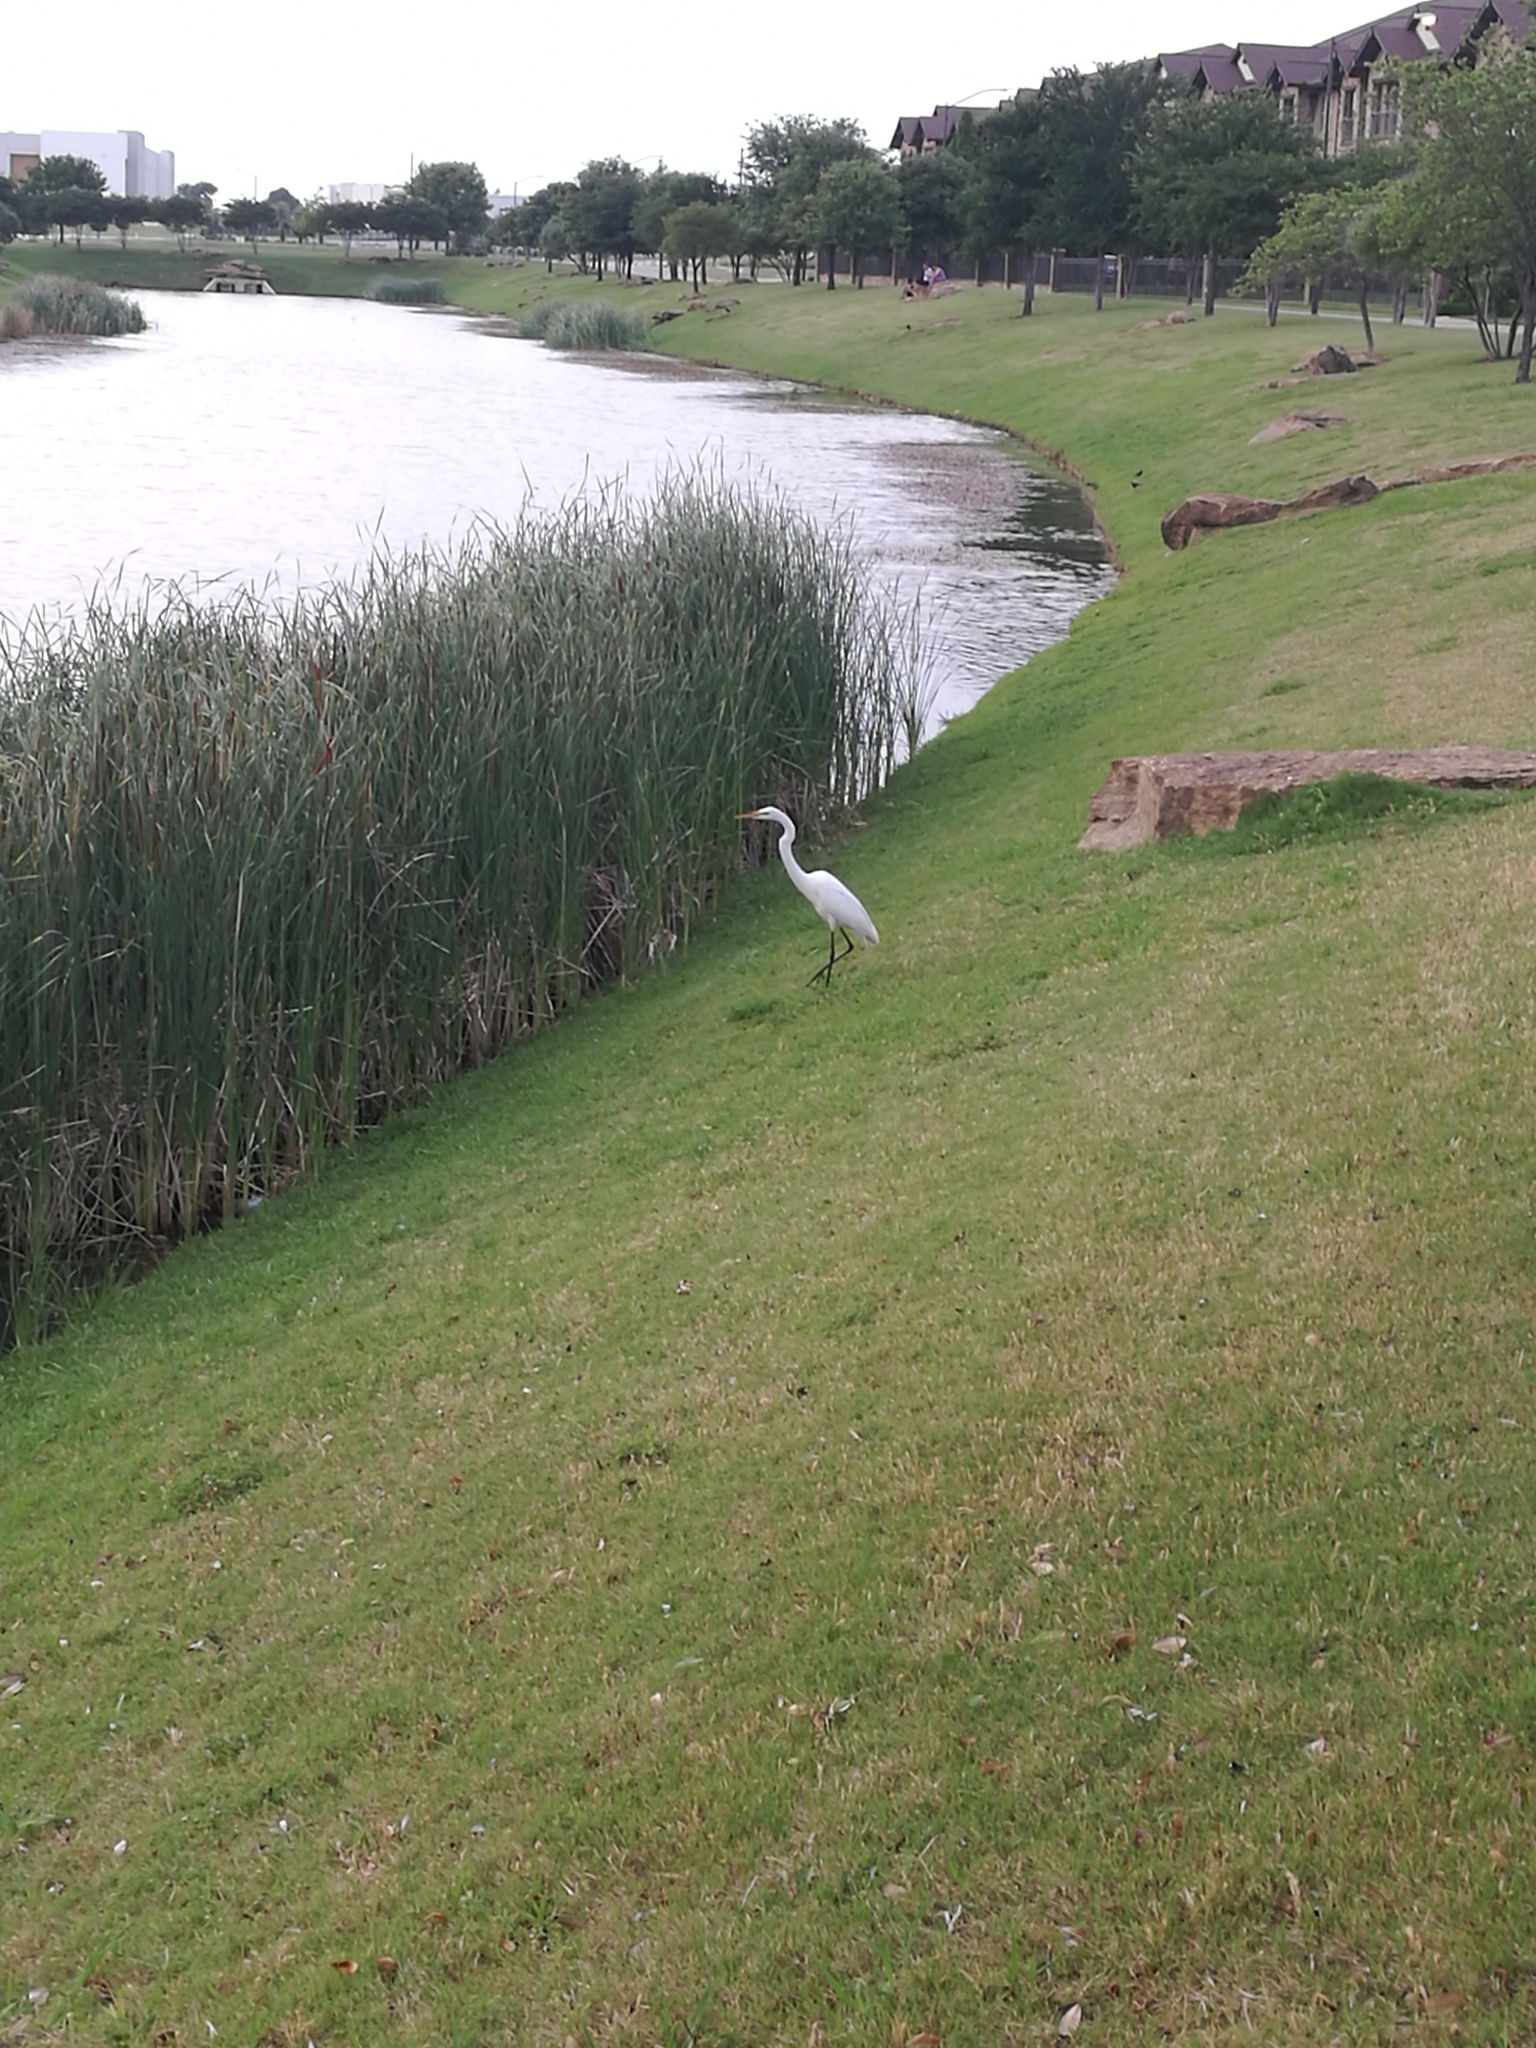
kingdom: Animalia
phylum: Chordata
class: Aves
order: Pelecaniformes
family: Ardeidae
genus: Ardea
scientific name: Ardea alba
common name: Great egret
